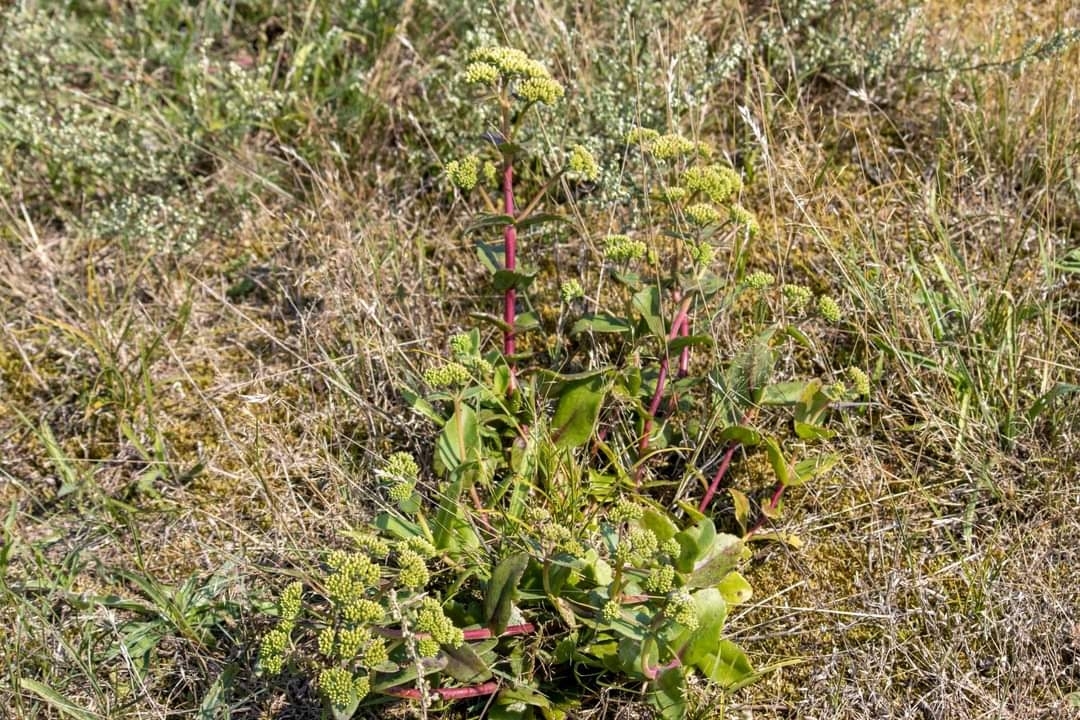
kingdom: Plantae
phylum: Tracheophyta
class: Magnoliopsida
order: Saxifragales
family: Crassulaceae
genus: Hylotelephium
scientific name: Hylotelephium maximum
